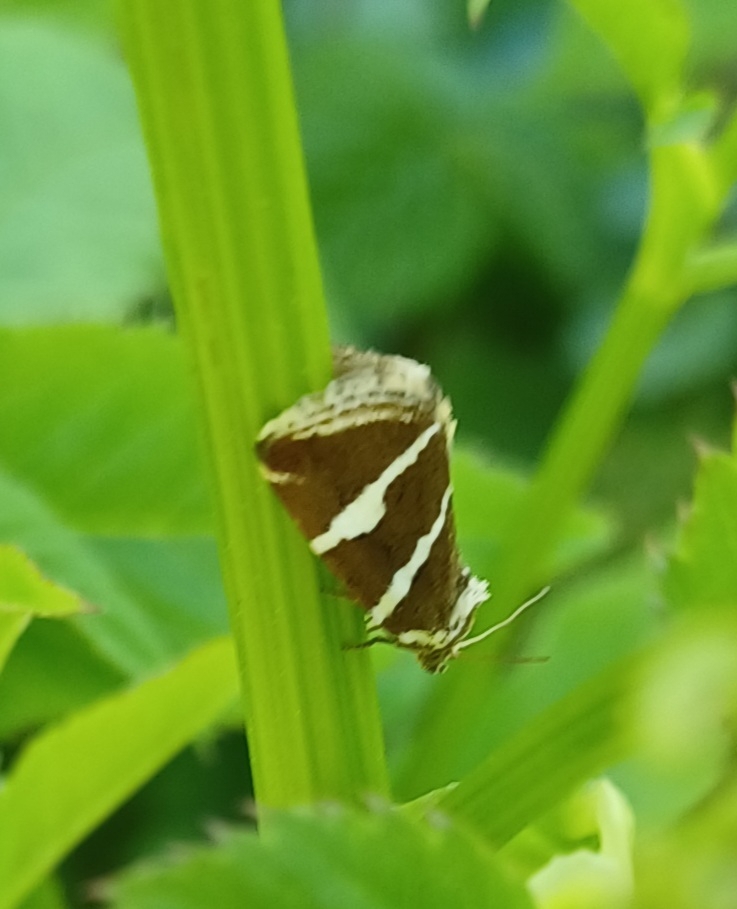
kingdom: Animalia
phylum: Arthropoda
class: Insecta
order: Lepidoptera
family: Noctuidae
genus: Deltote
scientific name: Deltote bankiana
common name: Silver barred
